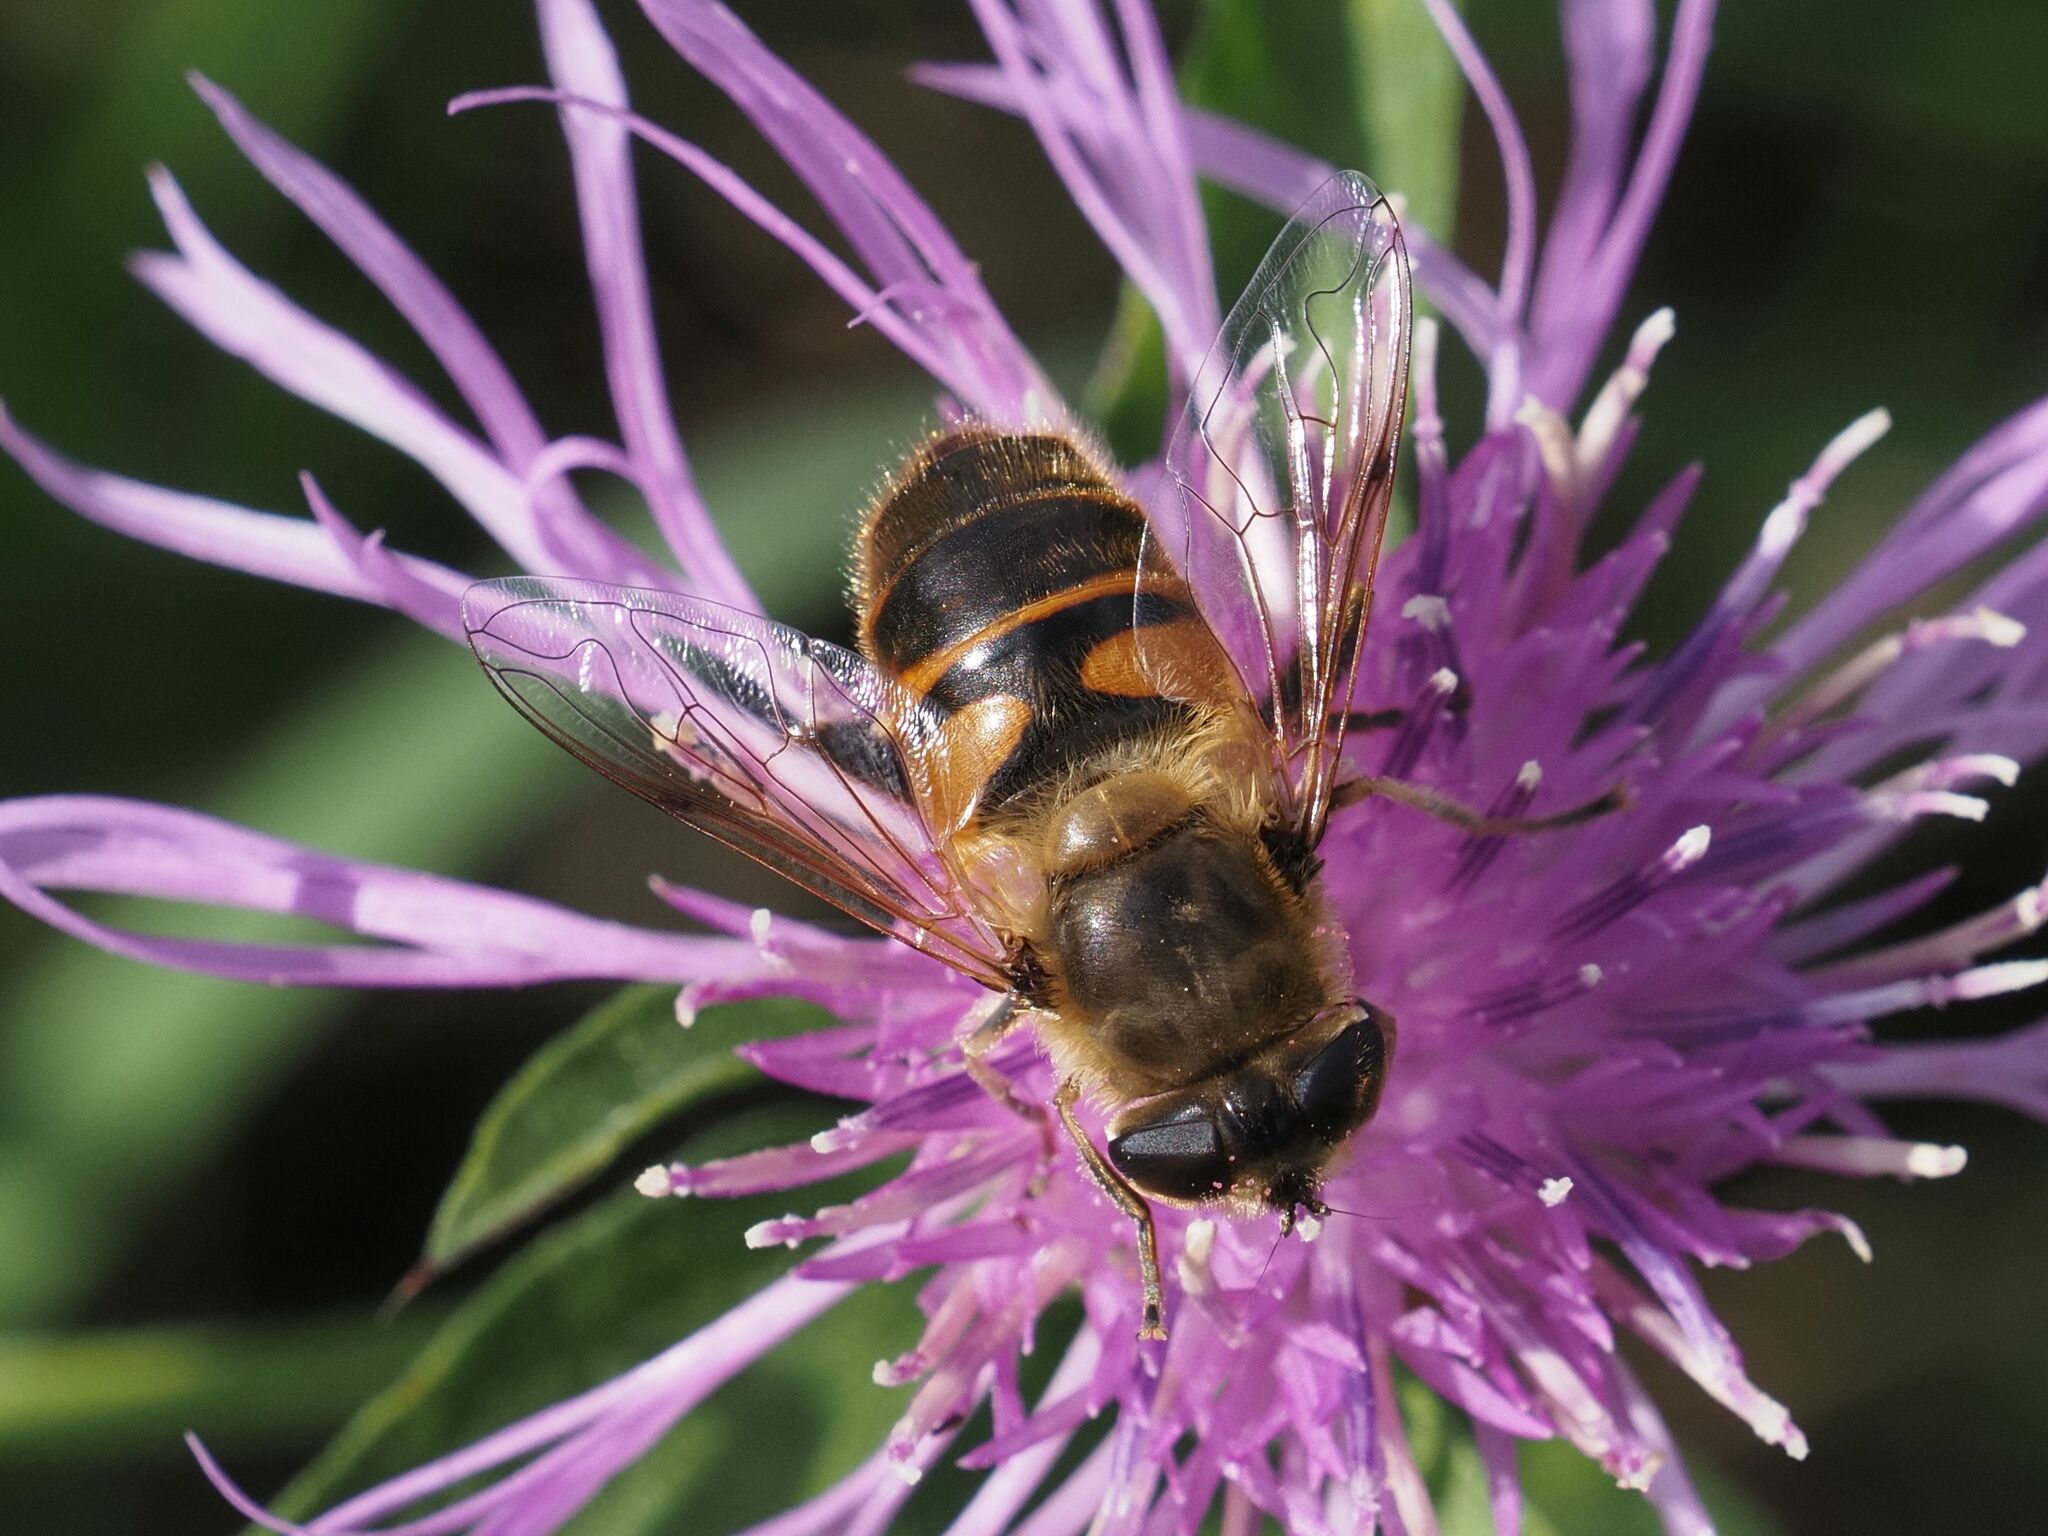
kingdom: Animalia
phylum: Arthropoda
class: Insecta
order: Diptera
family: Syrphidae
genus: Eristalis
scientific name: Eristalis tenax
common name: Drone fly
